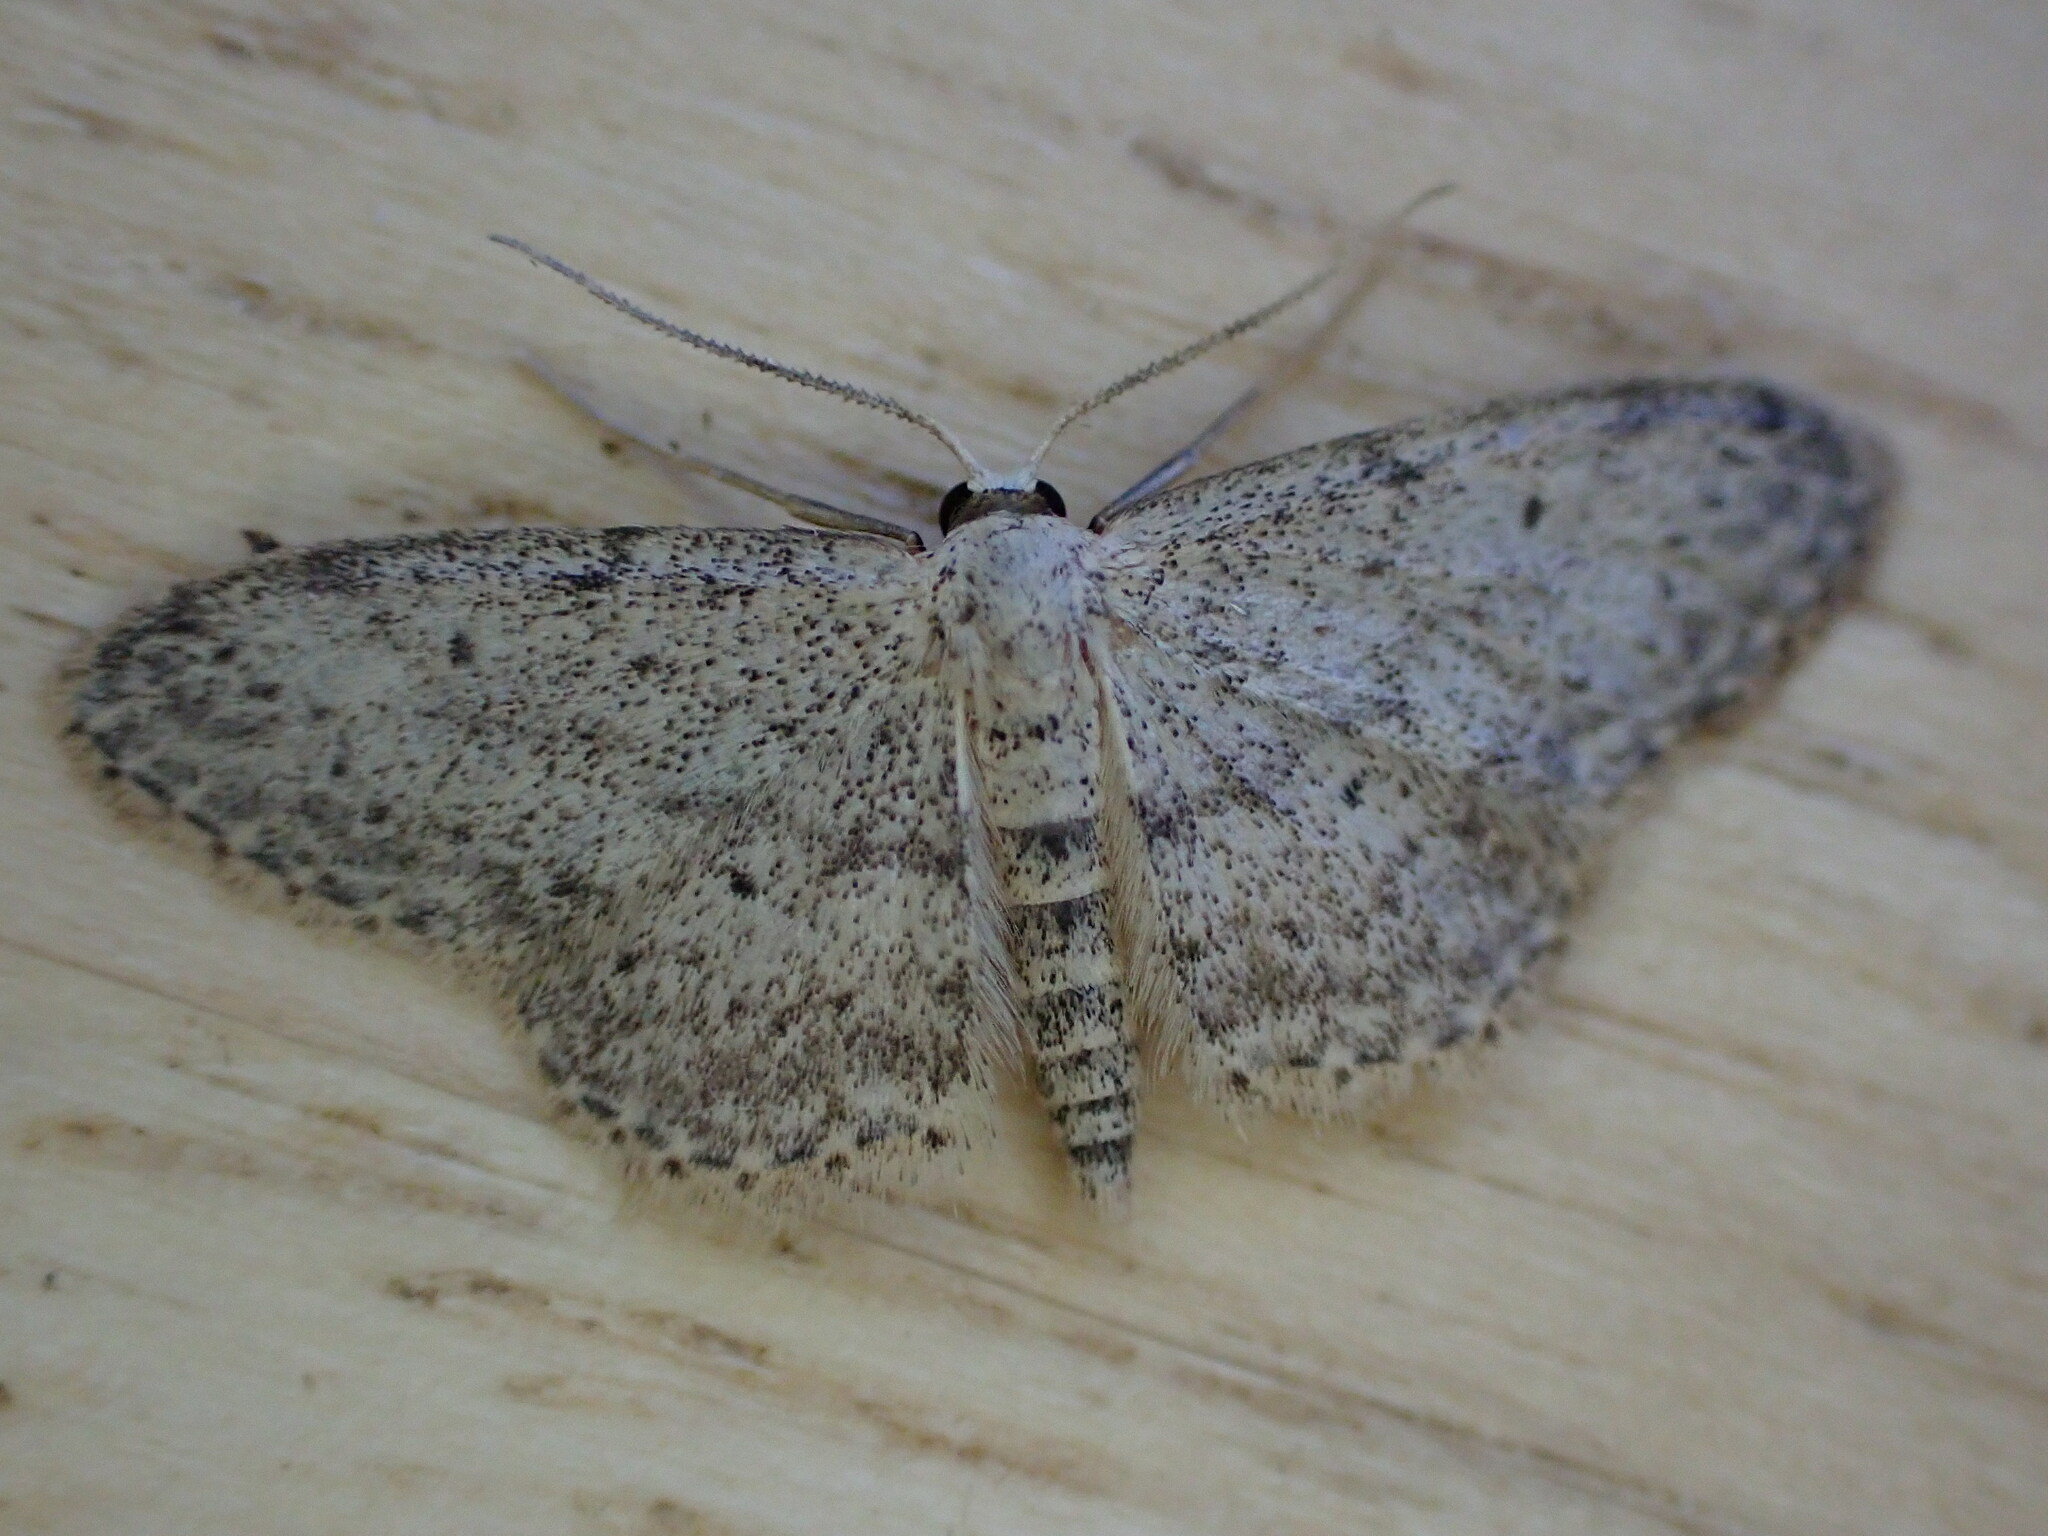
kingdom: Animalia
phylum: Arthropoda
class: Insecta
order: Lepidoptera
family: Geometridae
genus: Idaea
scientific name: Idaea seriata
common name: Small dusty wave
